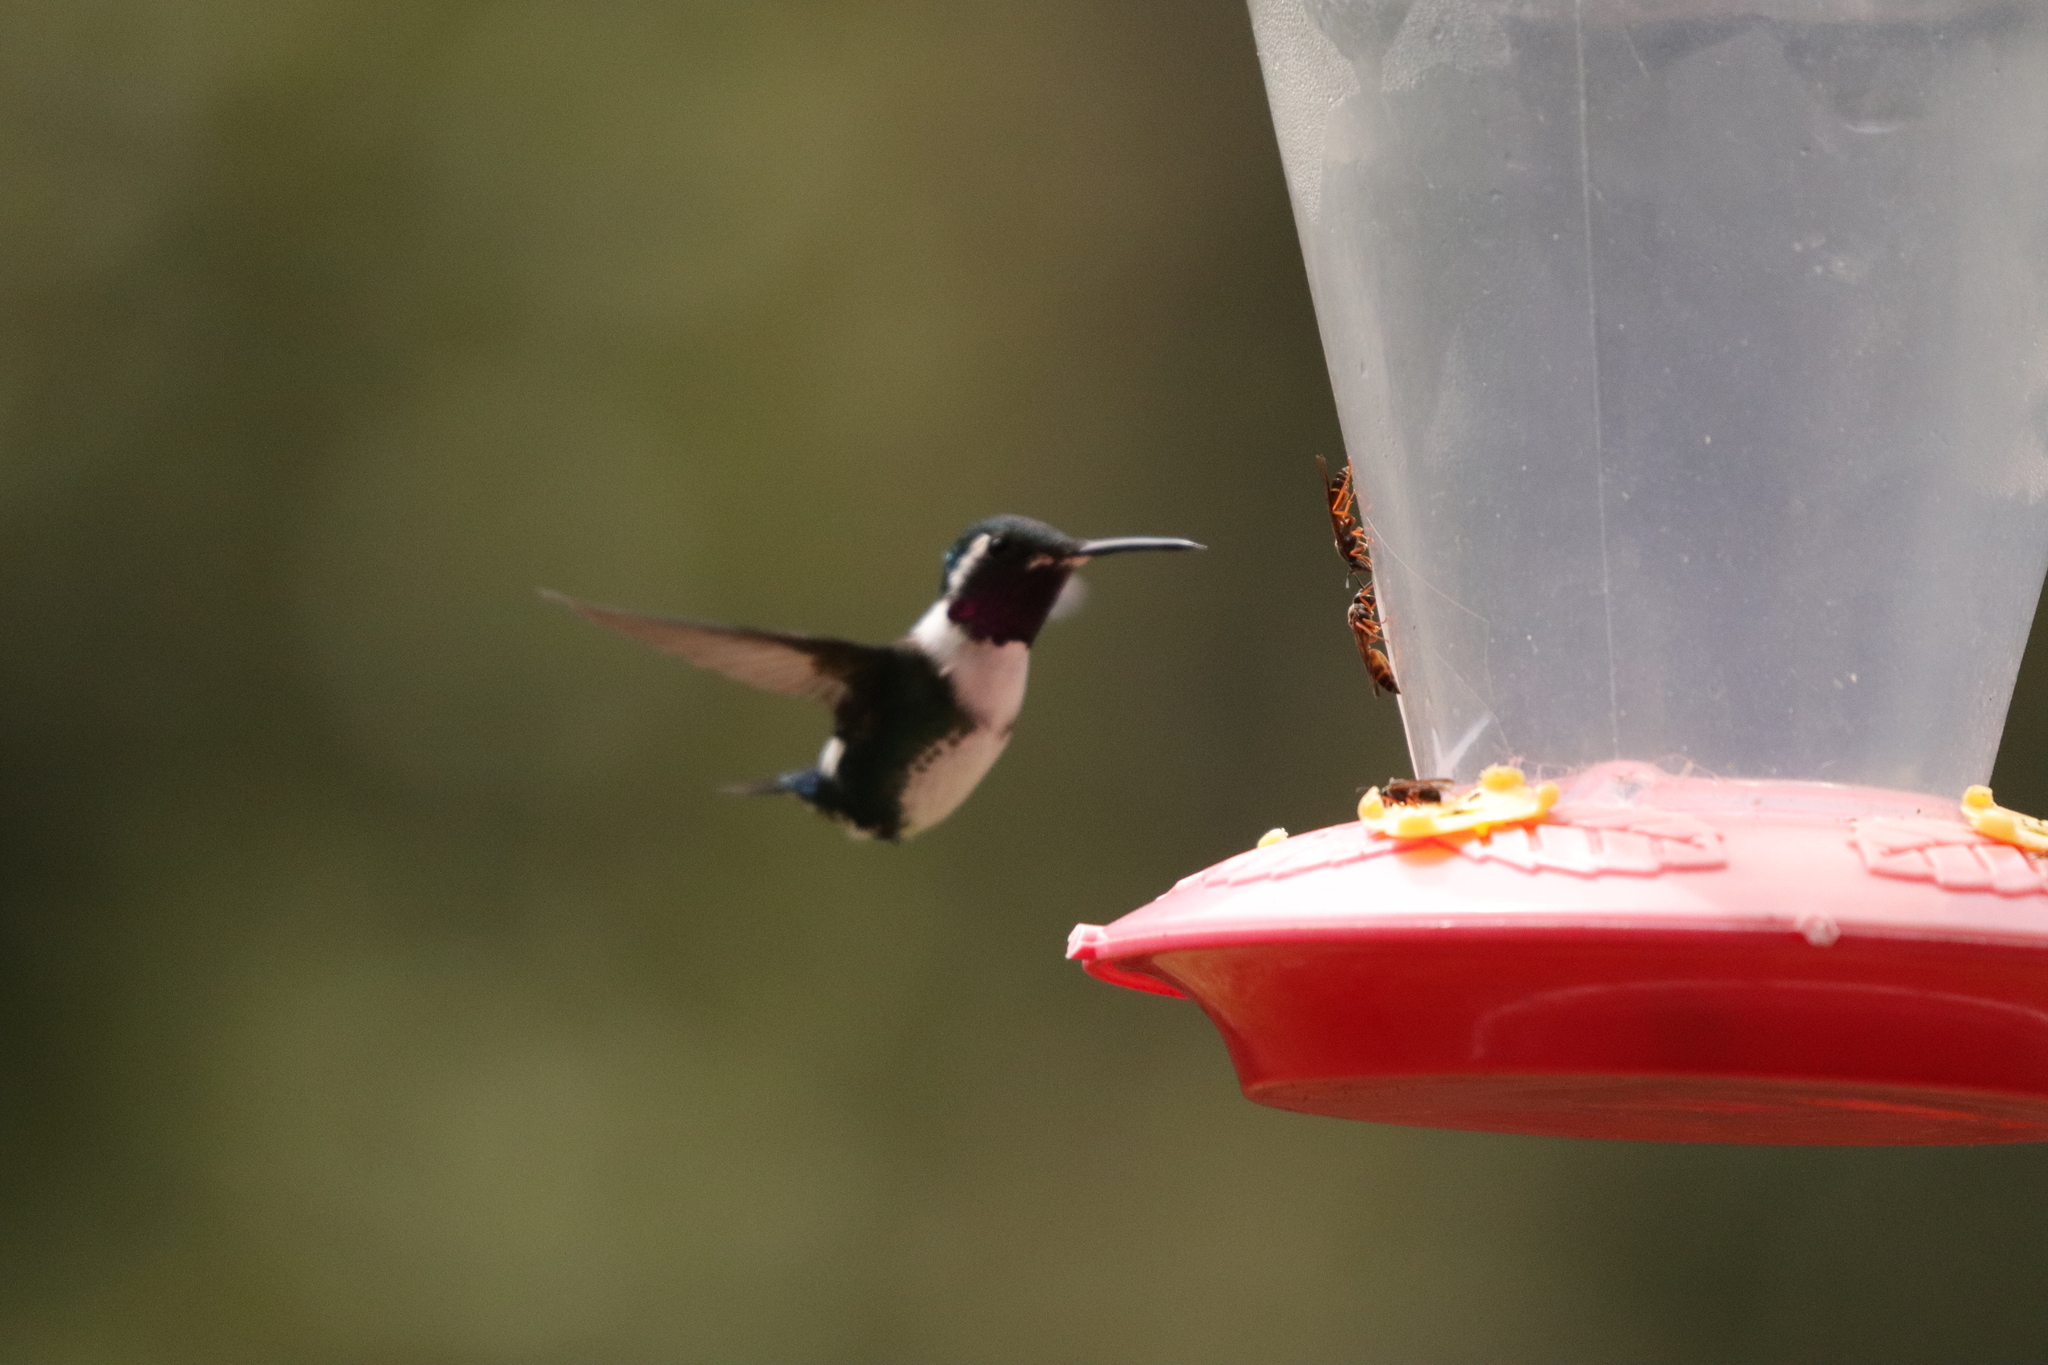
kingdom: Animalia
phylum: Chordata
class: Aves
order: Apodiformes
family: Trochilidae
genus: Chaetocercus
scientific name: Chaetocercus mulsant
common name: White-bellied woodstar
